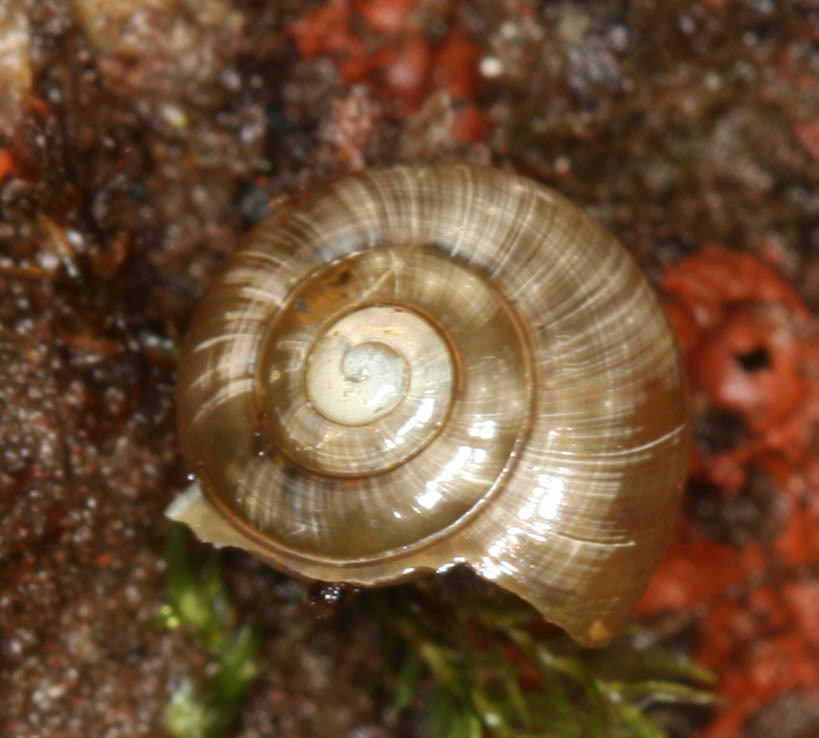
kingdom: Animalia
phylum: Mollusca
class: Gastropoda
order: Stylommatophora
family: Oxychilidae
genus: Oxychilus
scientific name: Oxychilus alliarius
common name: Garlic glass-snail
